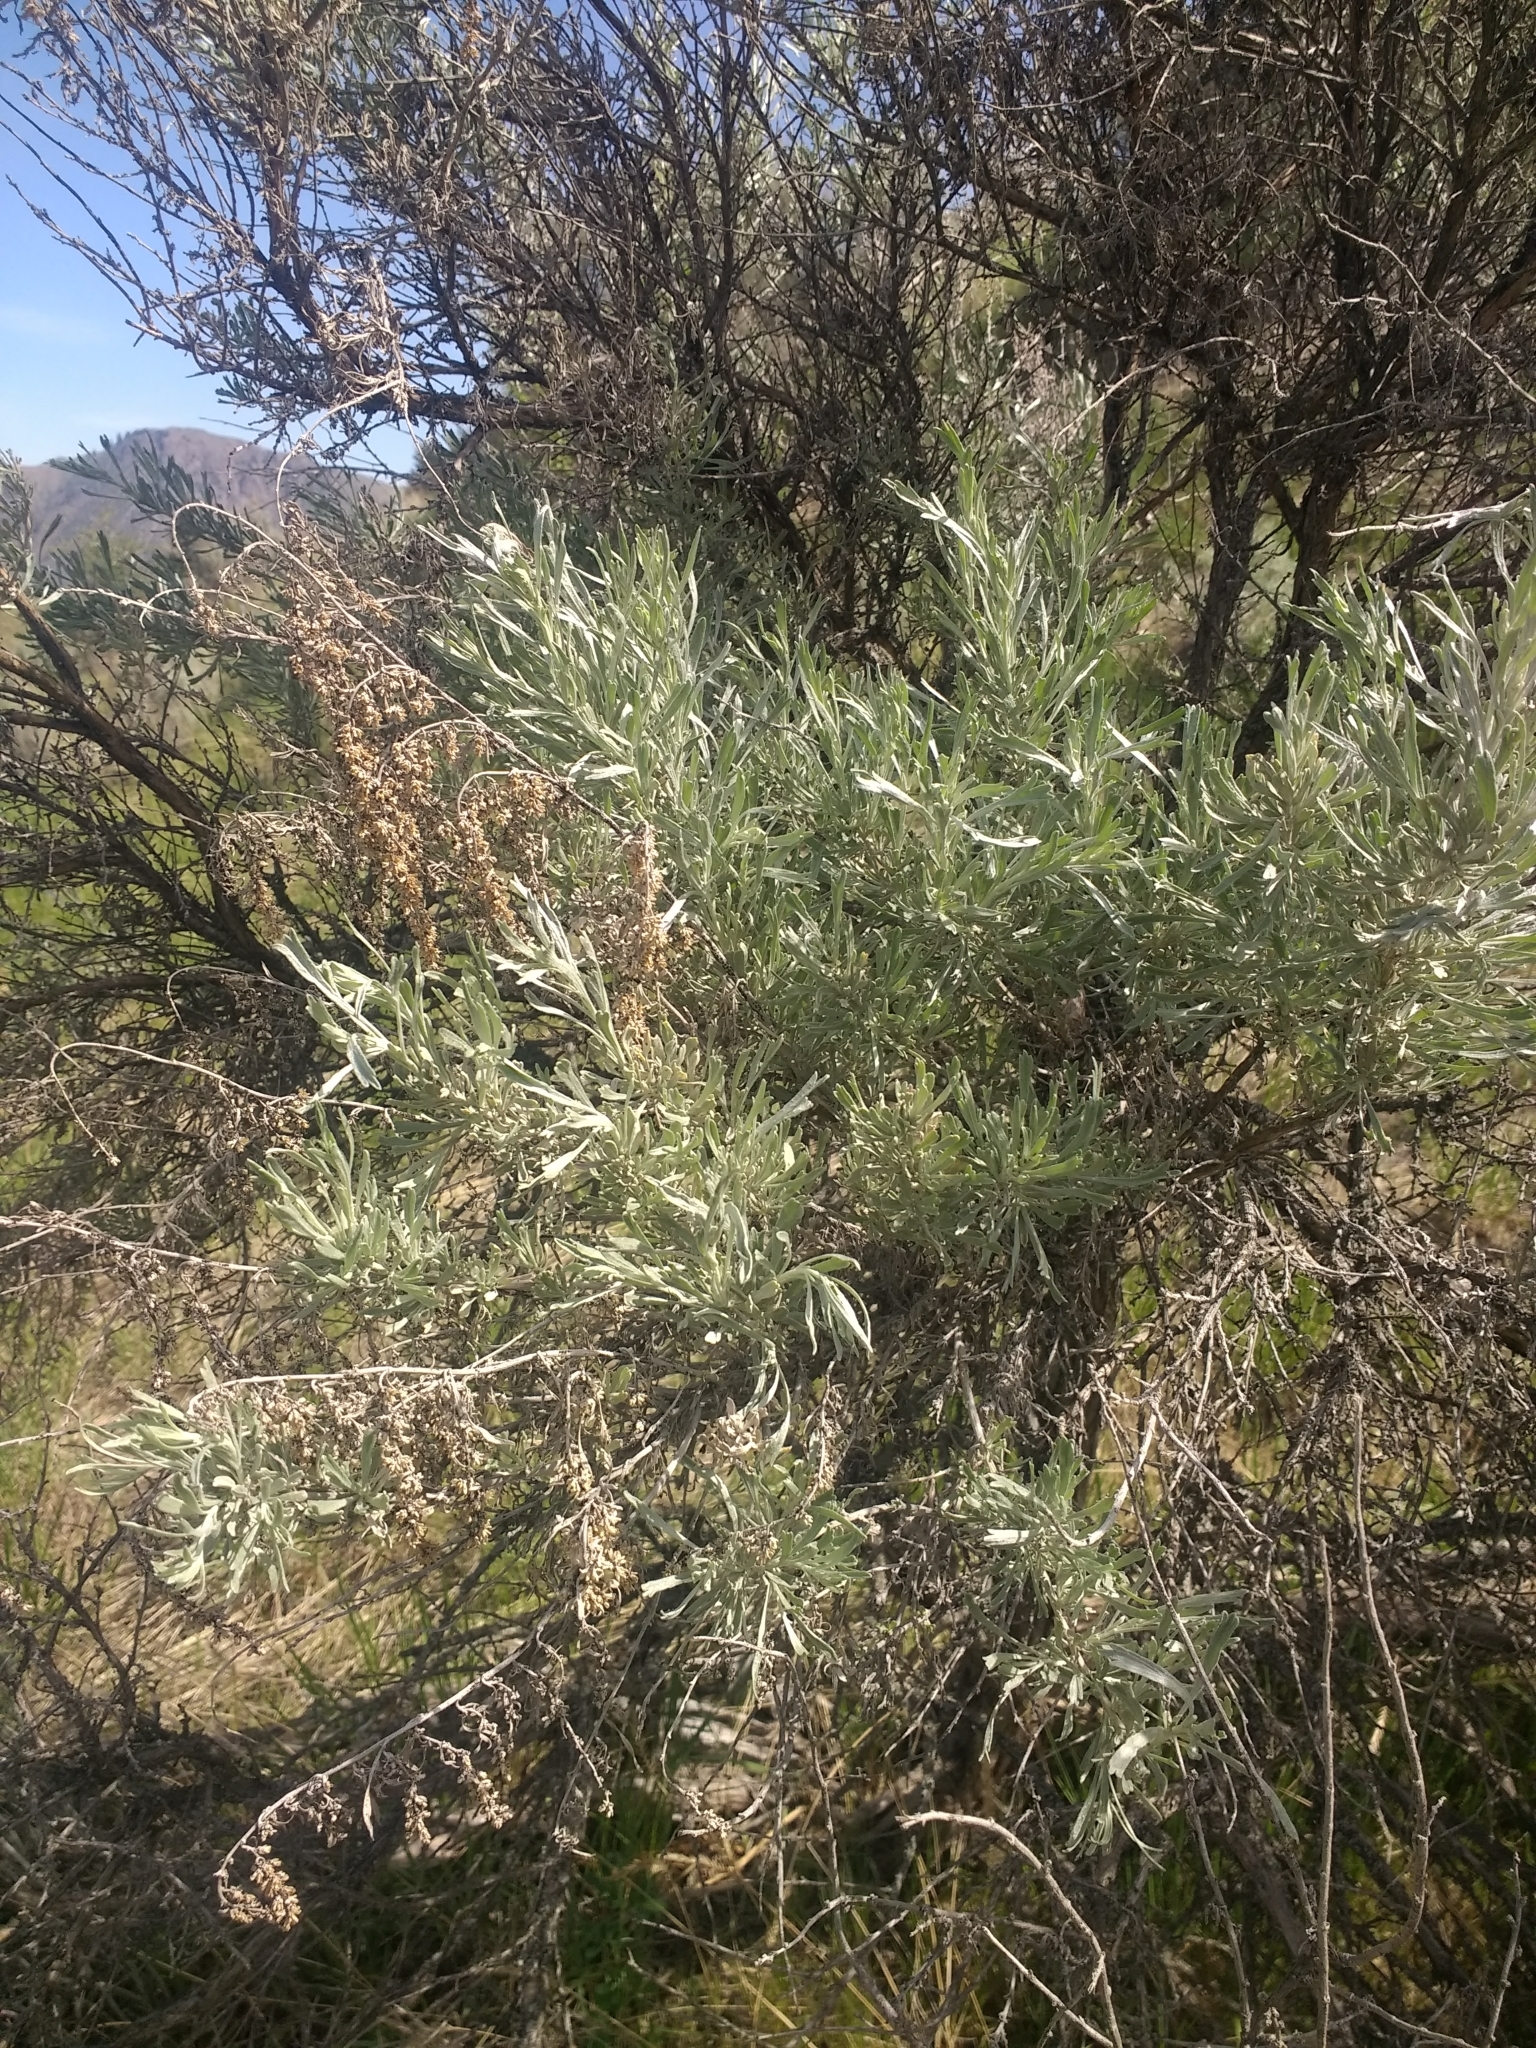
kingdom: Plantae
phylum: Tracheophyta
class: Magnoliopsida
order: Asterales
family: Asteraceae
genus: Artemisia
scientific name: Artemisia tridentata
